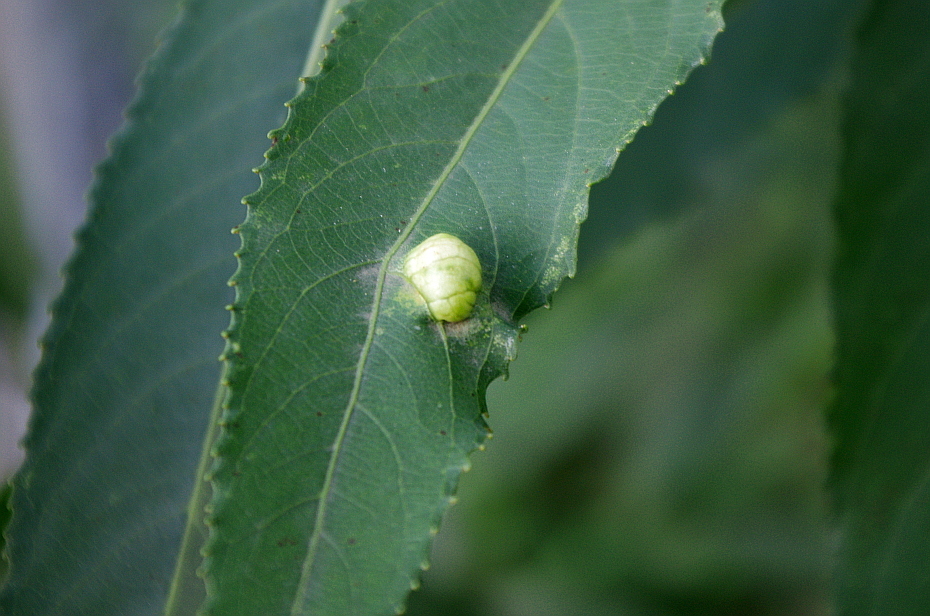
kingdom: Plantae
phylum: Tracheophyta
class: Magnoliopsida
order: Malpighiales
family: Salicaceae
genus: Salix
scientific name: Salix fragilis
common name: Crack willow
